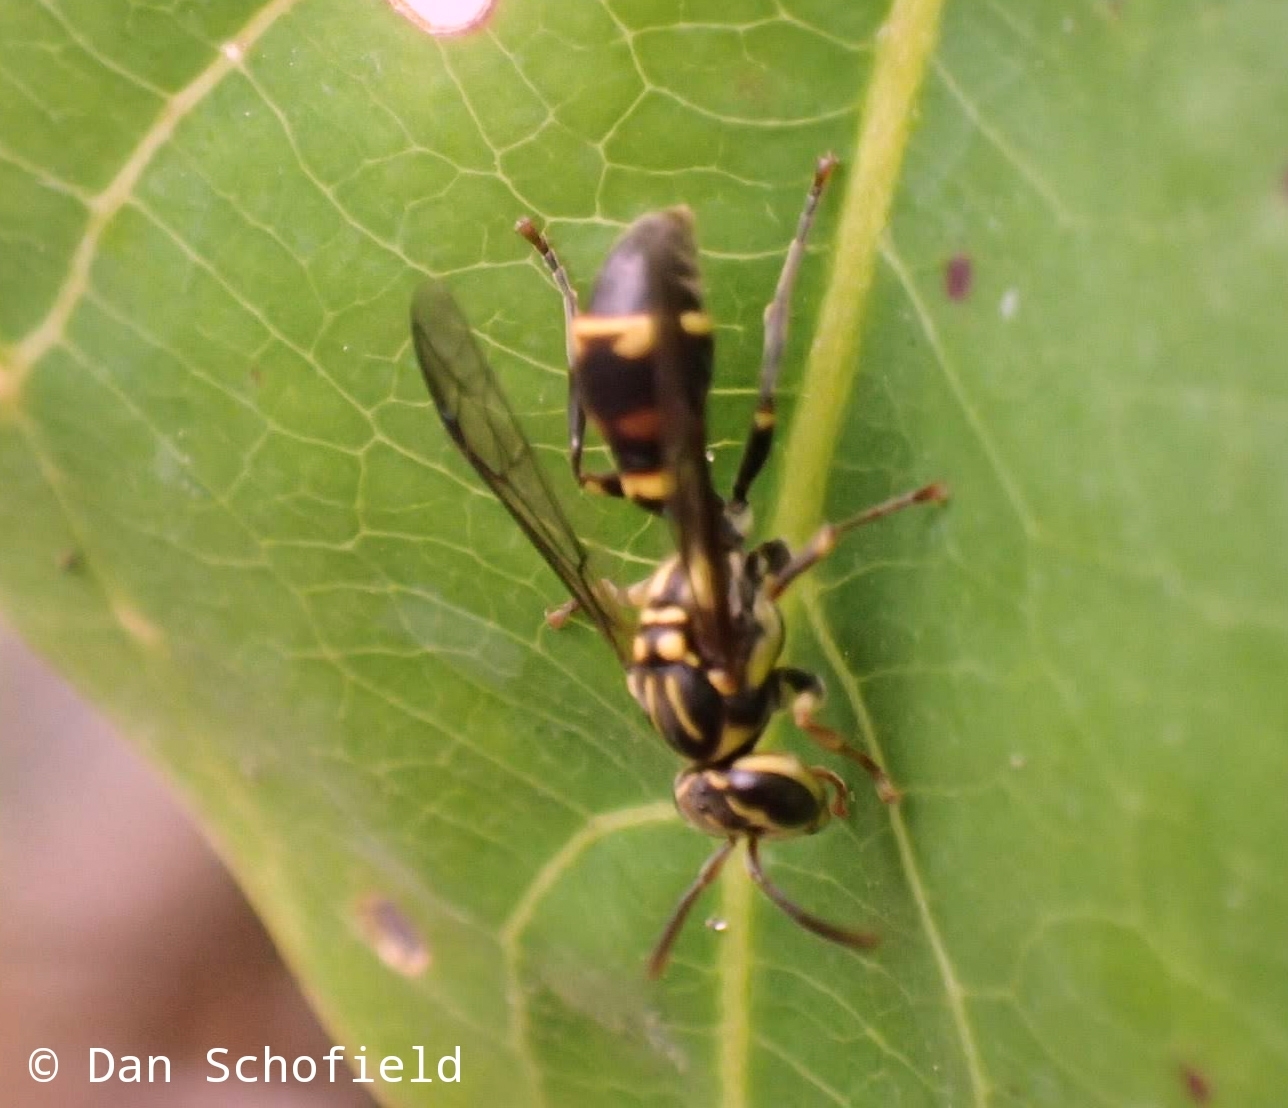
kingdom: Animalia
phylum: Arthropoda
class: Insecta
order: Hymenoptera
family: Vespidae
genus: Ropalidia
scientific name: Ropalidia flavobrunnea
